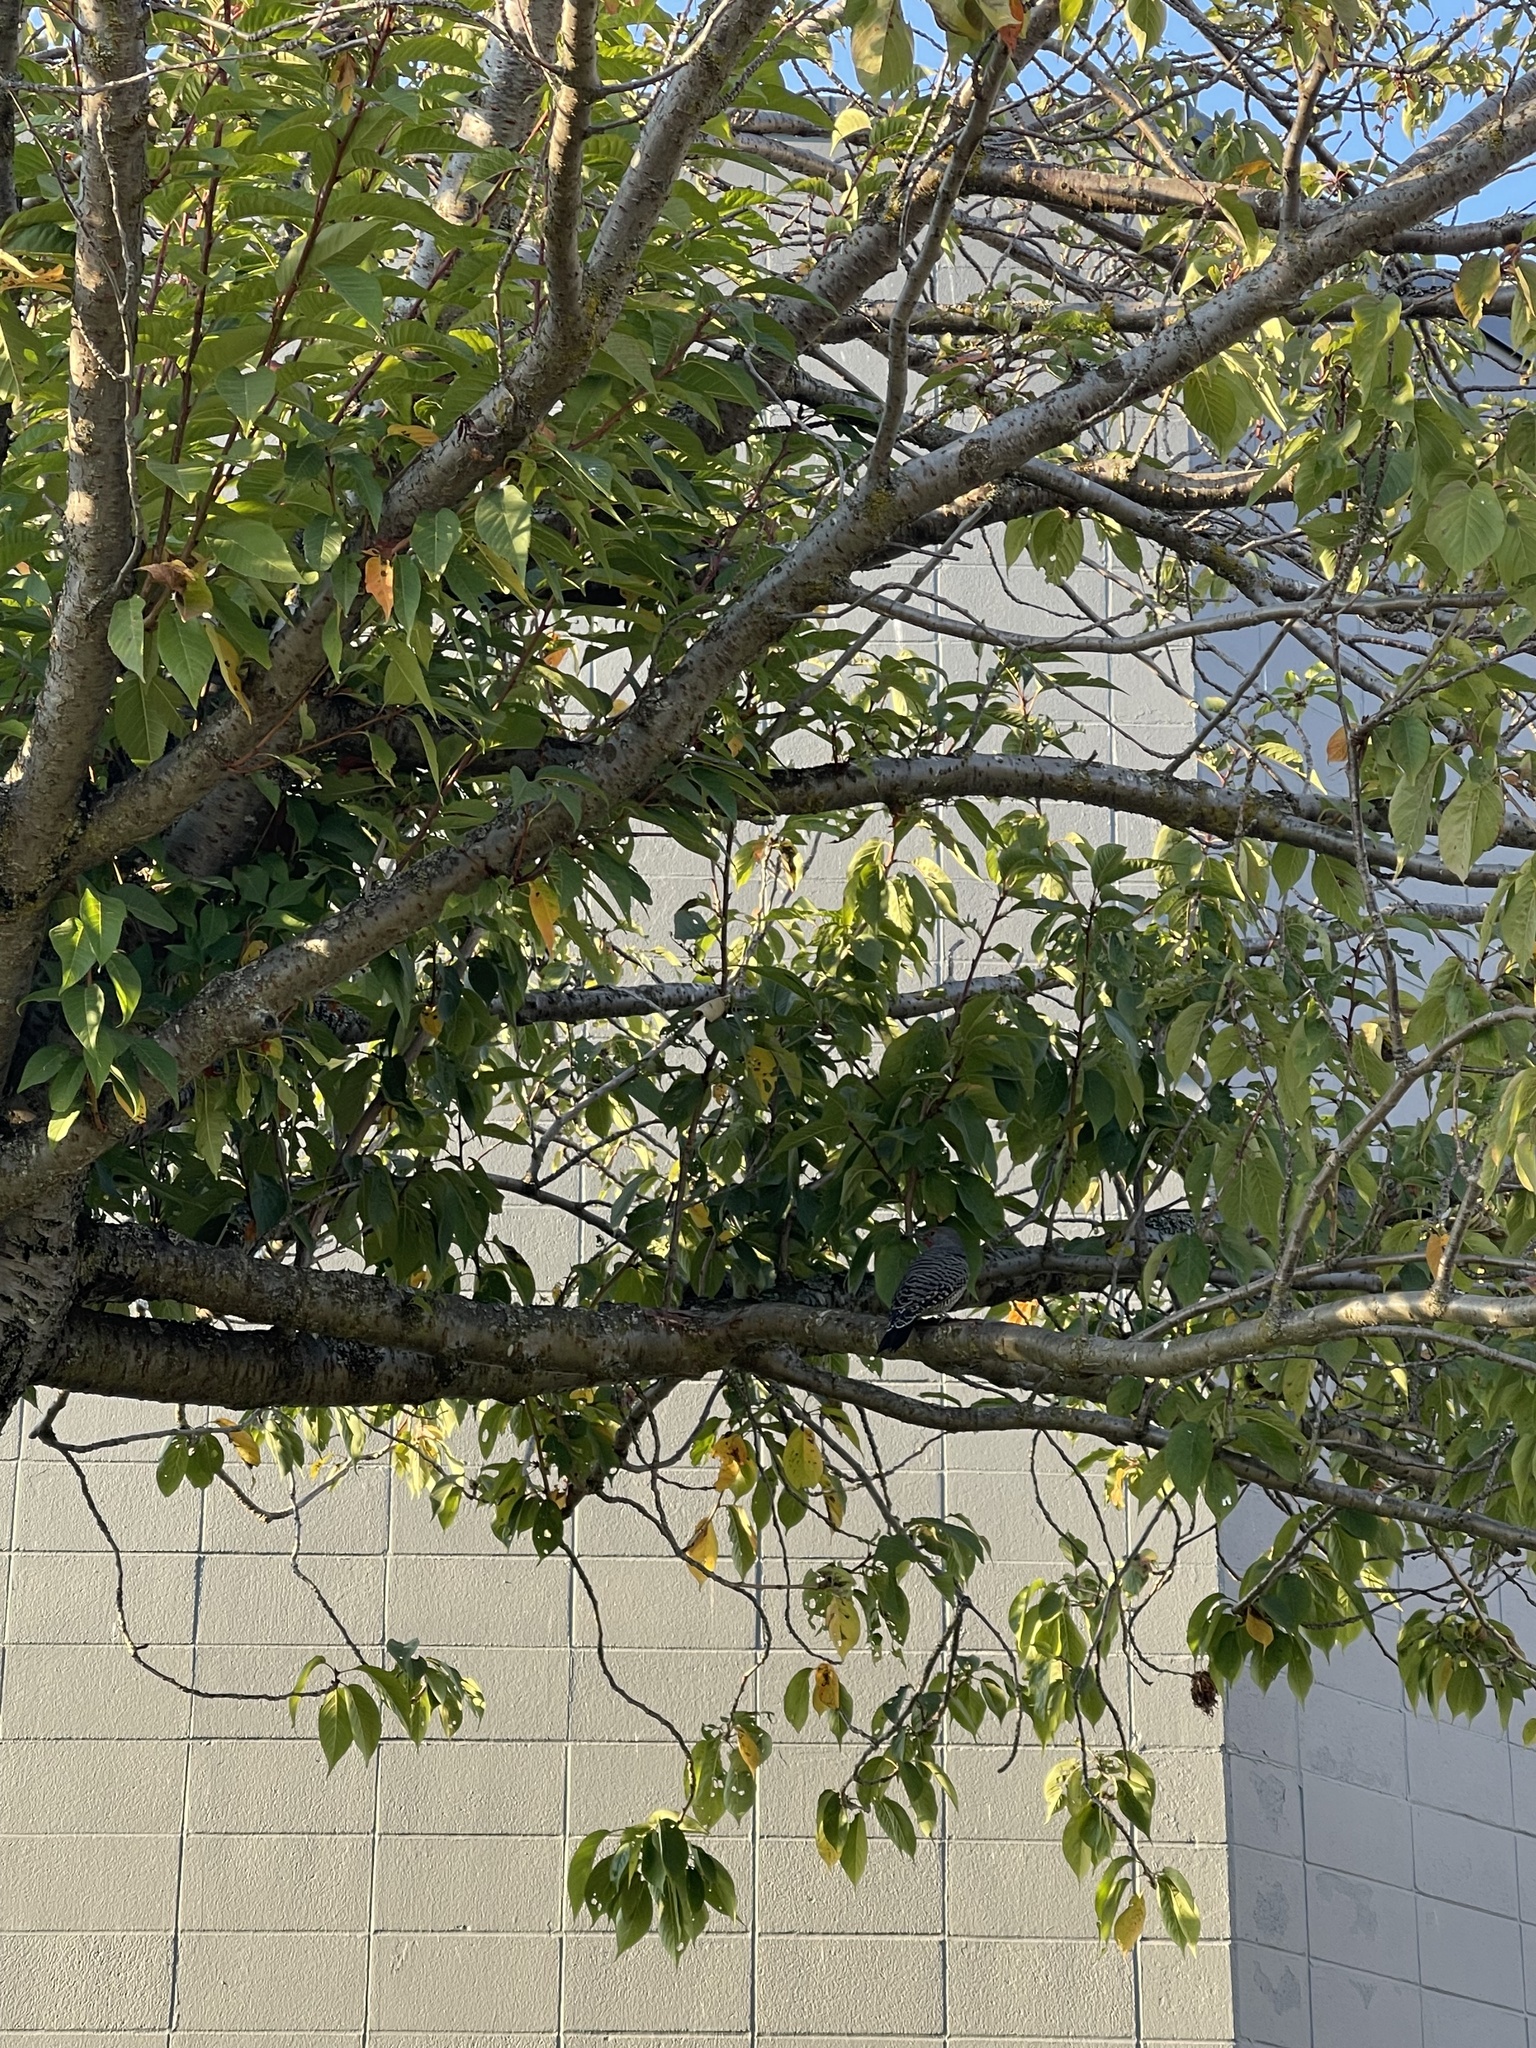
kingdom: Animalia
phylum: Chordata
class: Aves
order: Piciformes
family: Picidae
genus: Colaptes
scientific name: Colaptes auratus
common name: Northern flicker
